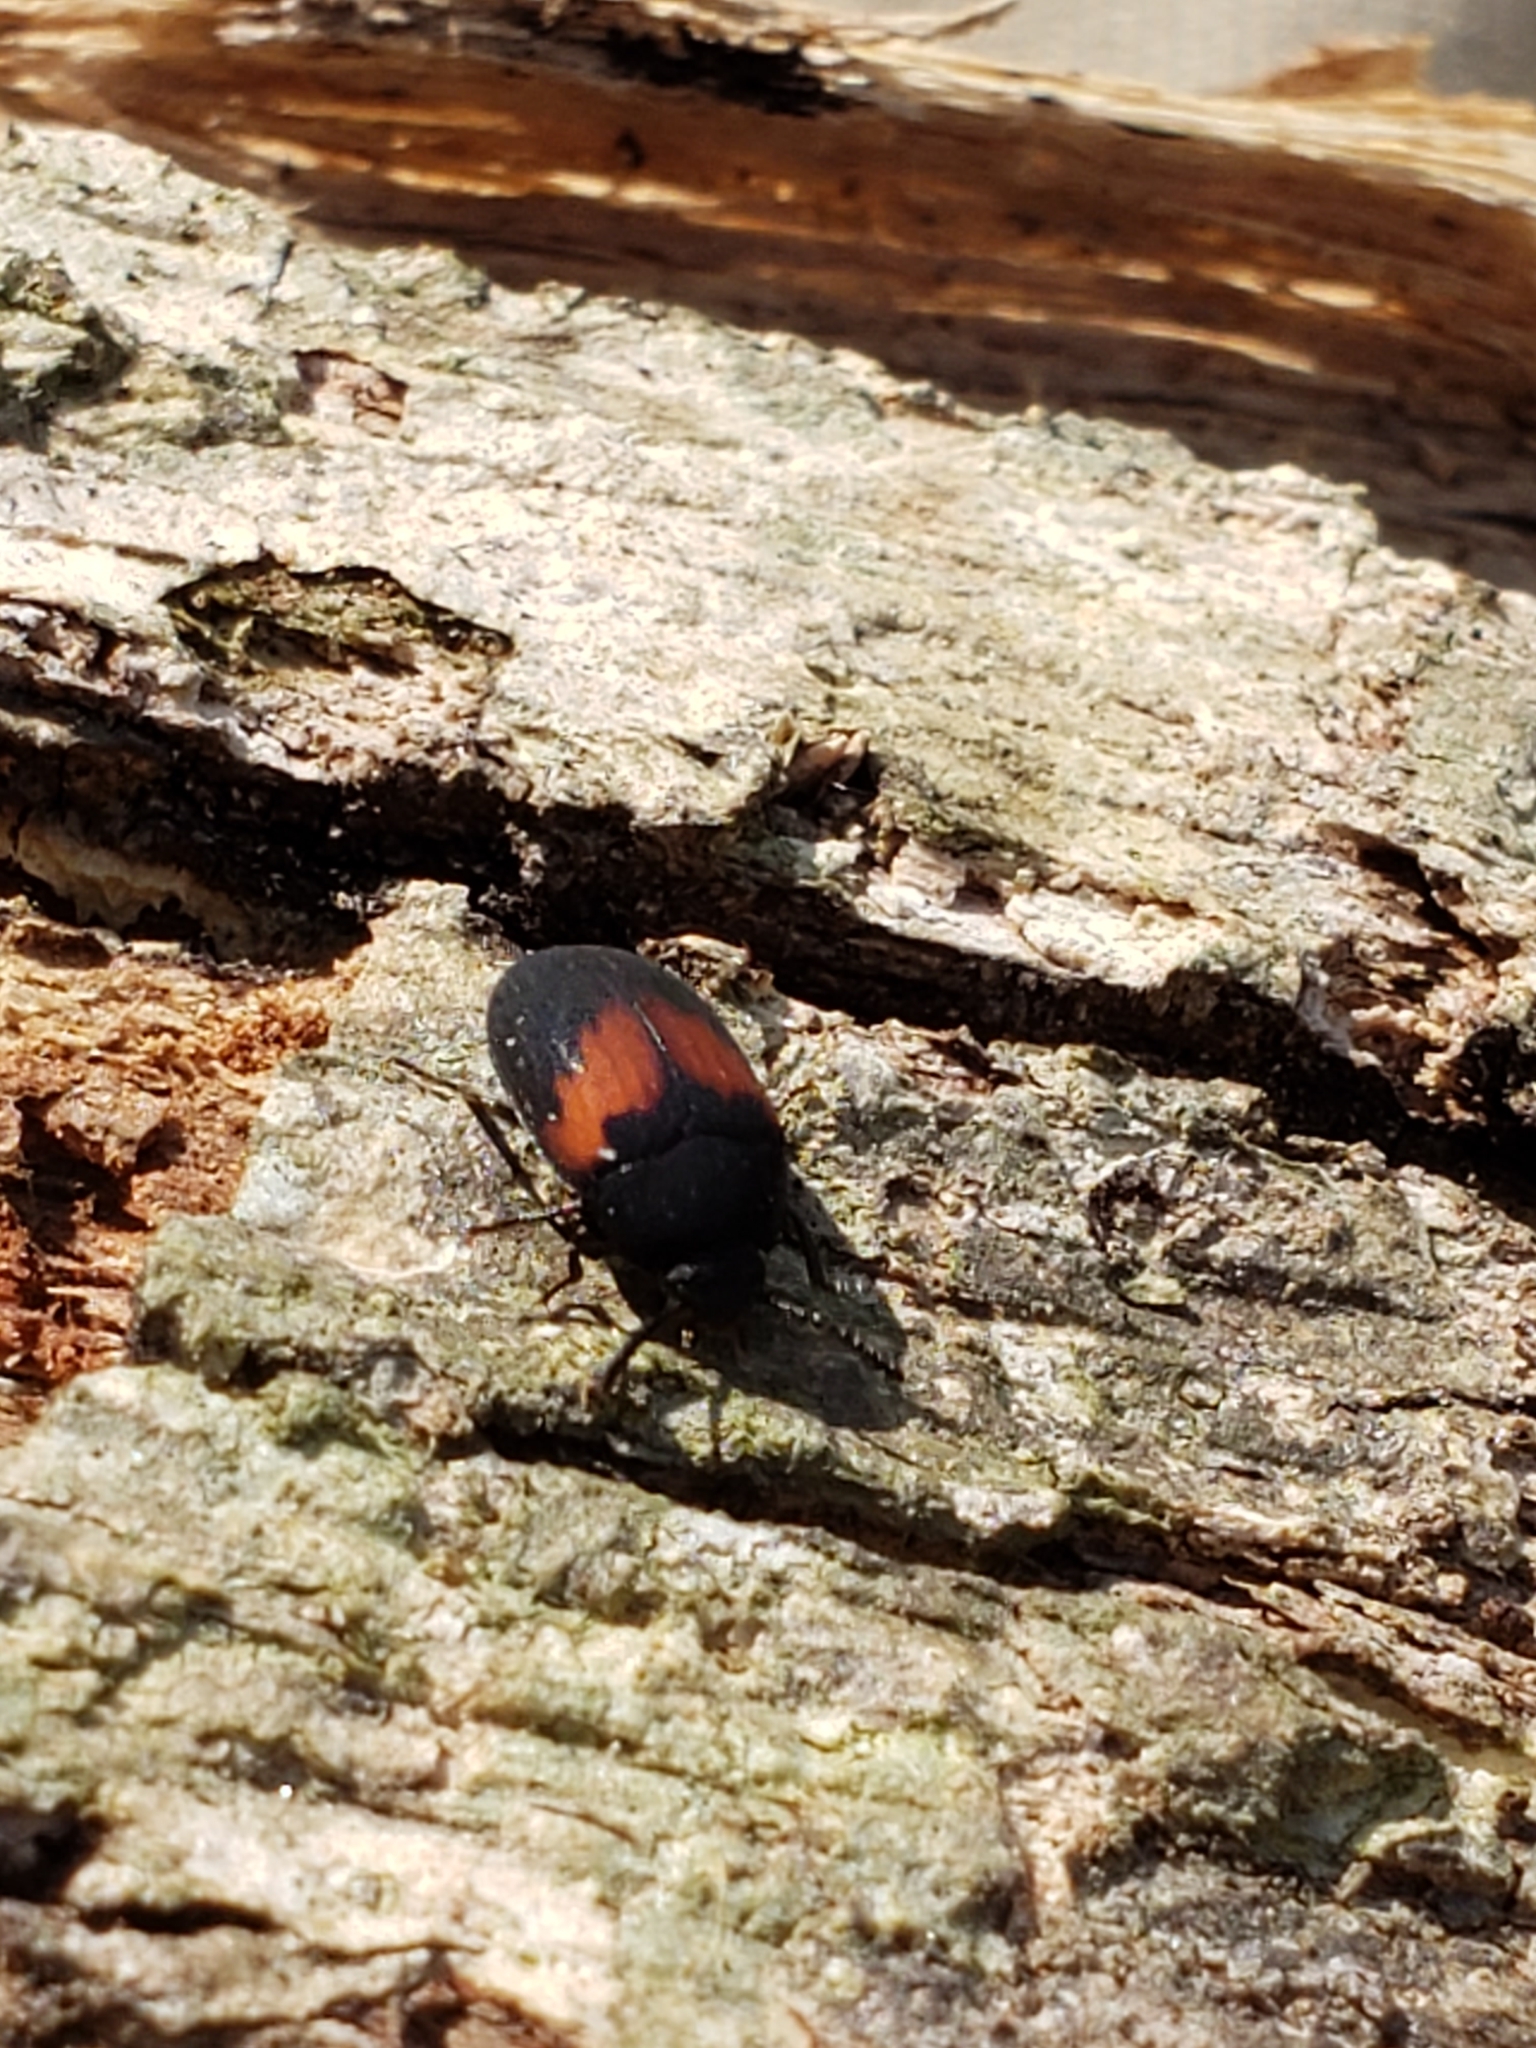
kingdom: Animalia
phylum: Arthropoda
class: Insecta
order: Coleoptera
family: Tenebrionidae
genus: Platydema
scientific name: Platydema elliptica
